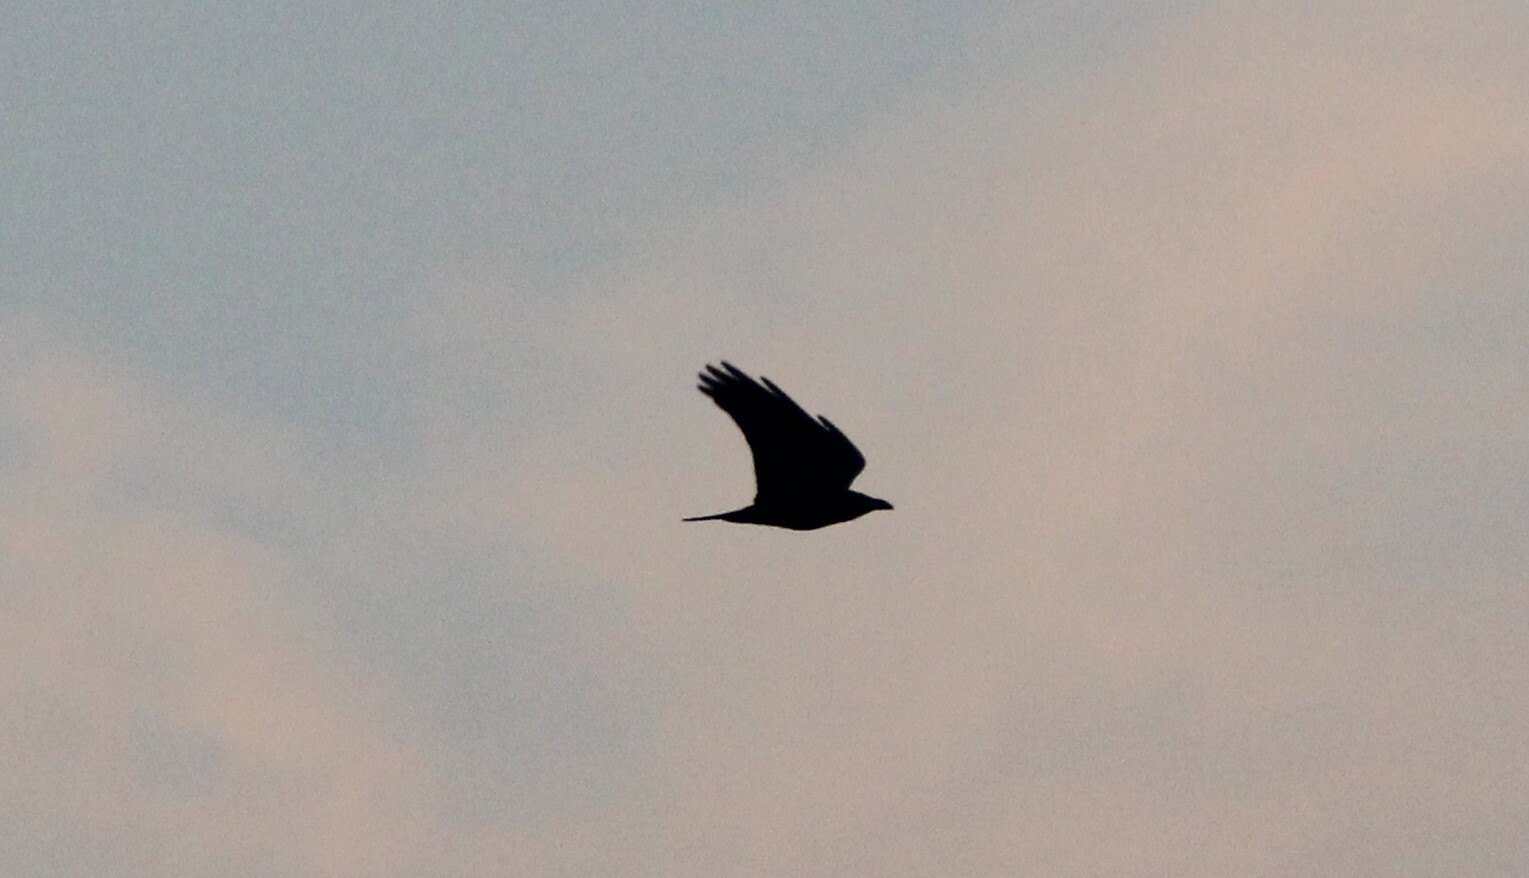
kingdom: Animalia
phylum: Chordata
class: Aves
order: Passeriformes
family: Corvidae
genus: Corvus
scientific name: Corvus corax
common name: Common raven
